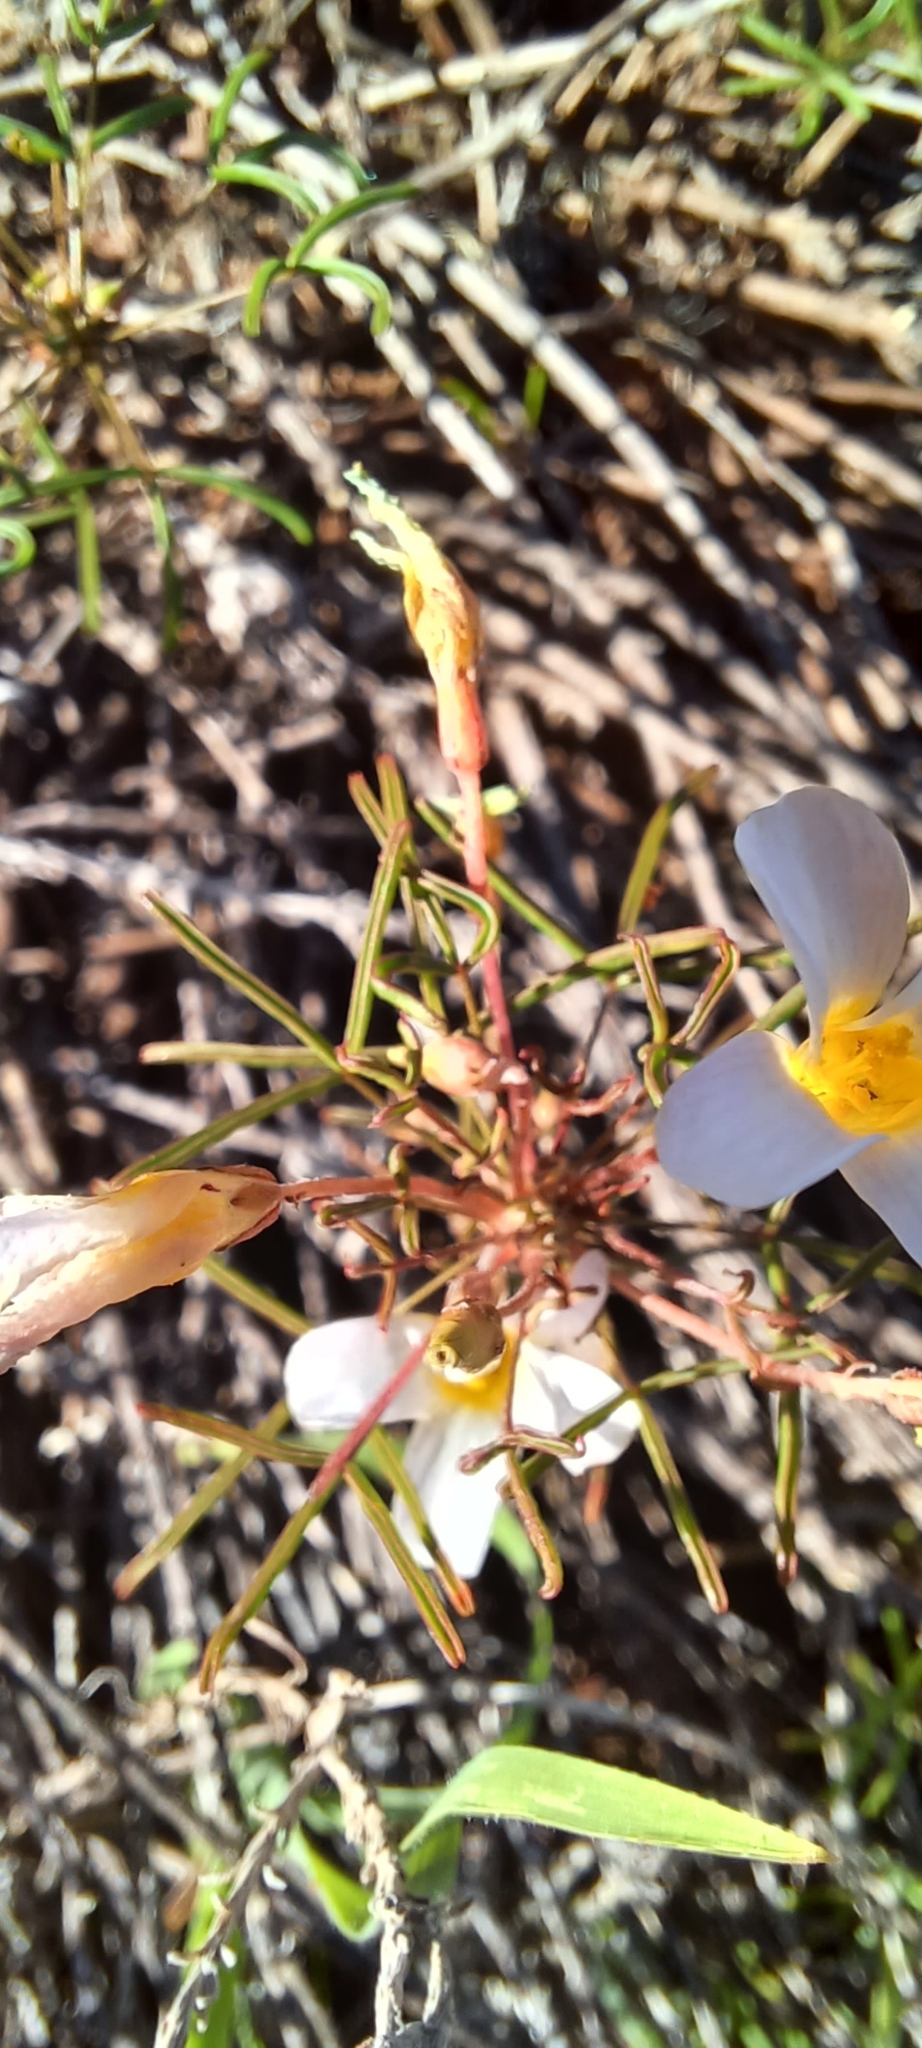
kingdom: Plantae
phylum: Tracheophyta
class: Magnoliopsida
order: Oxalidales
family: Oxalidaceae
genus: Oxalis
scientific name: Oxalis burkei
